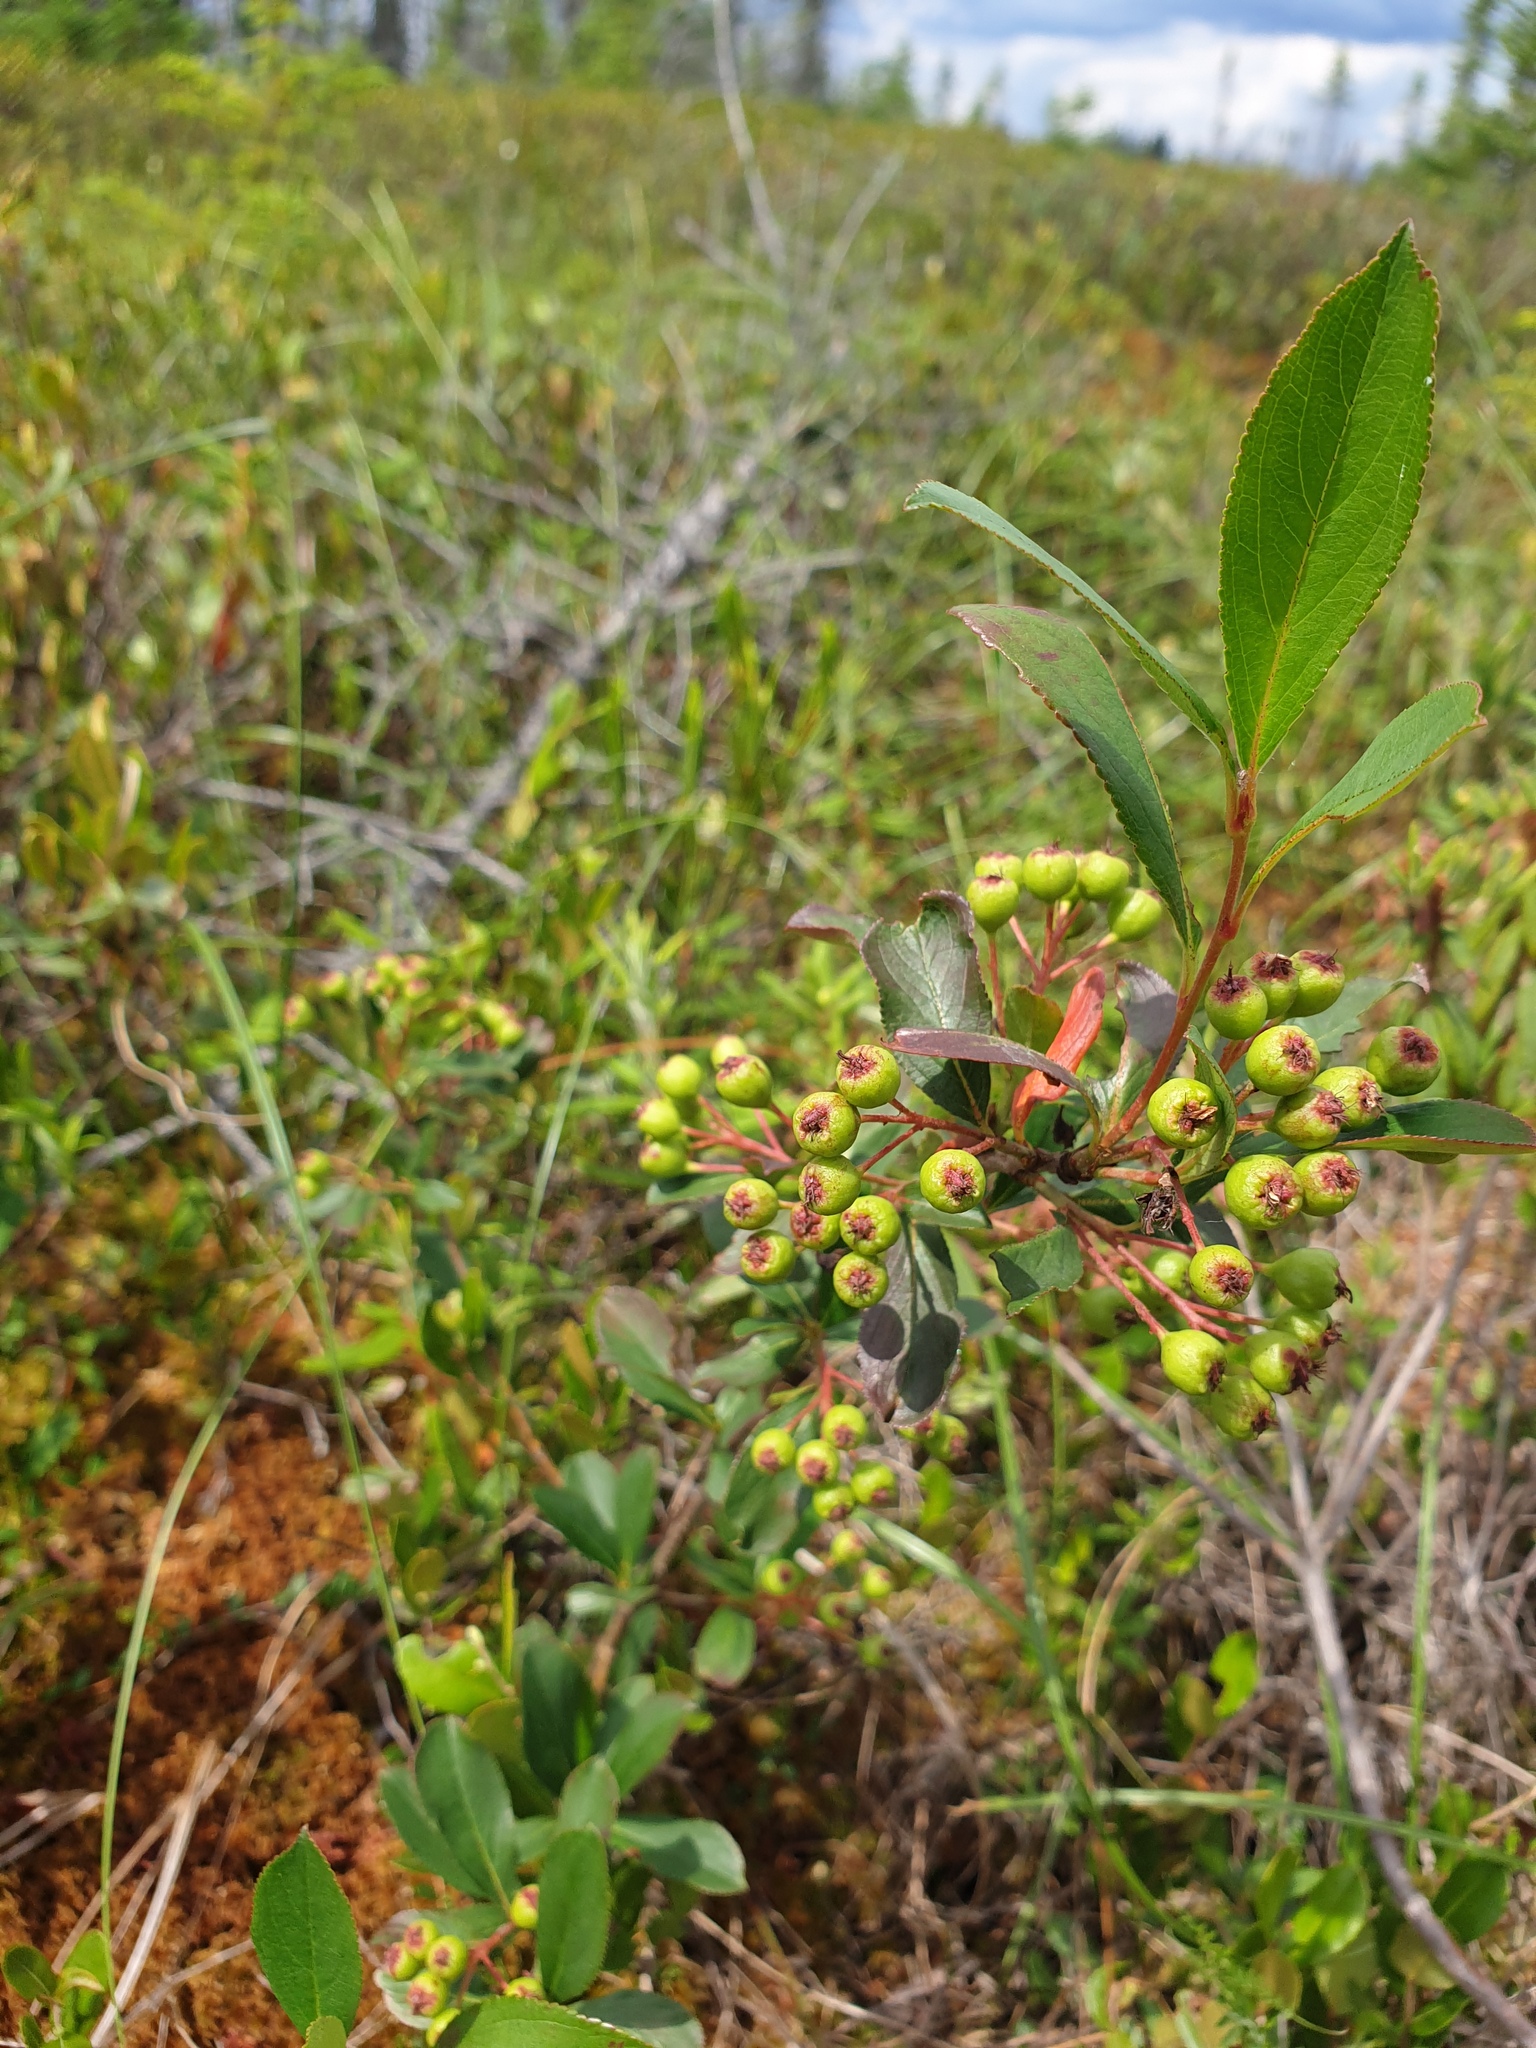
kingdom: Plantae
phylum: Tracheophyta
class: Magnoliopsida
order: Rosales
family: Rosaceae
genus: Aronia
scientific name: Aronia melanocarpa
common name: Black chokeberry
